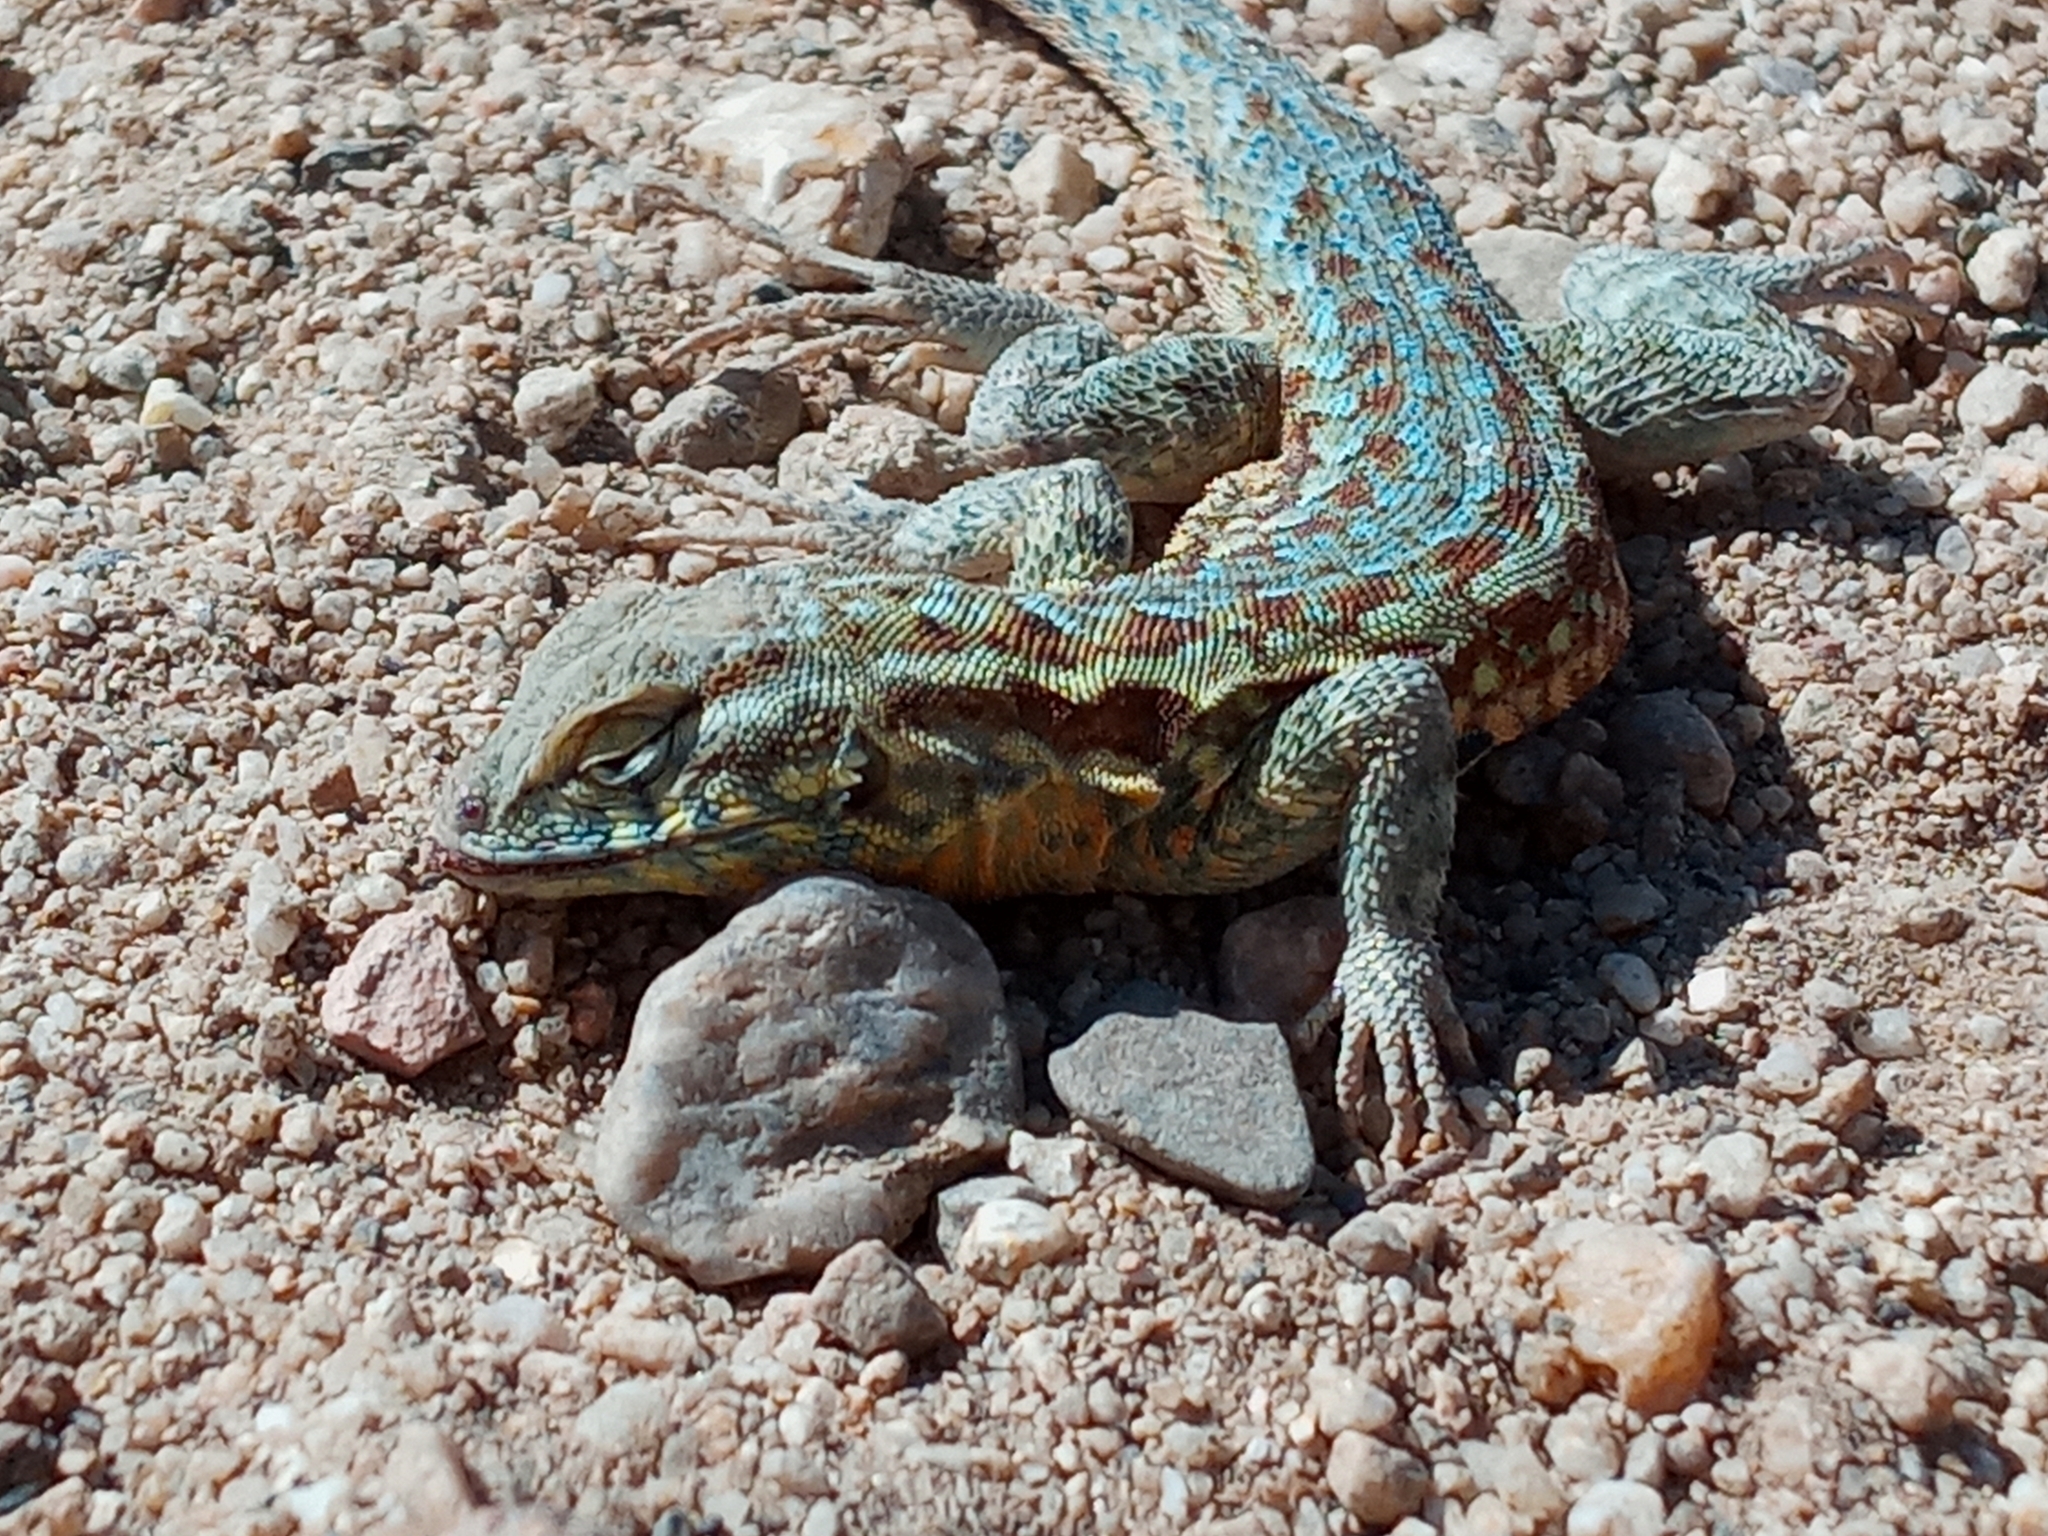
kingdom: Animalia
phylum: Chordata
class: Squamata
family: Phrynosomatidae
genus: Uta
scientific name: Uta stansburiana
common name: Side-blotched lizard
